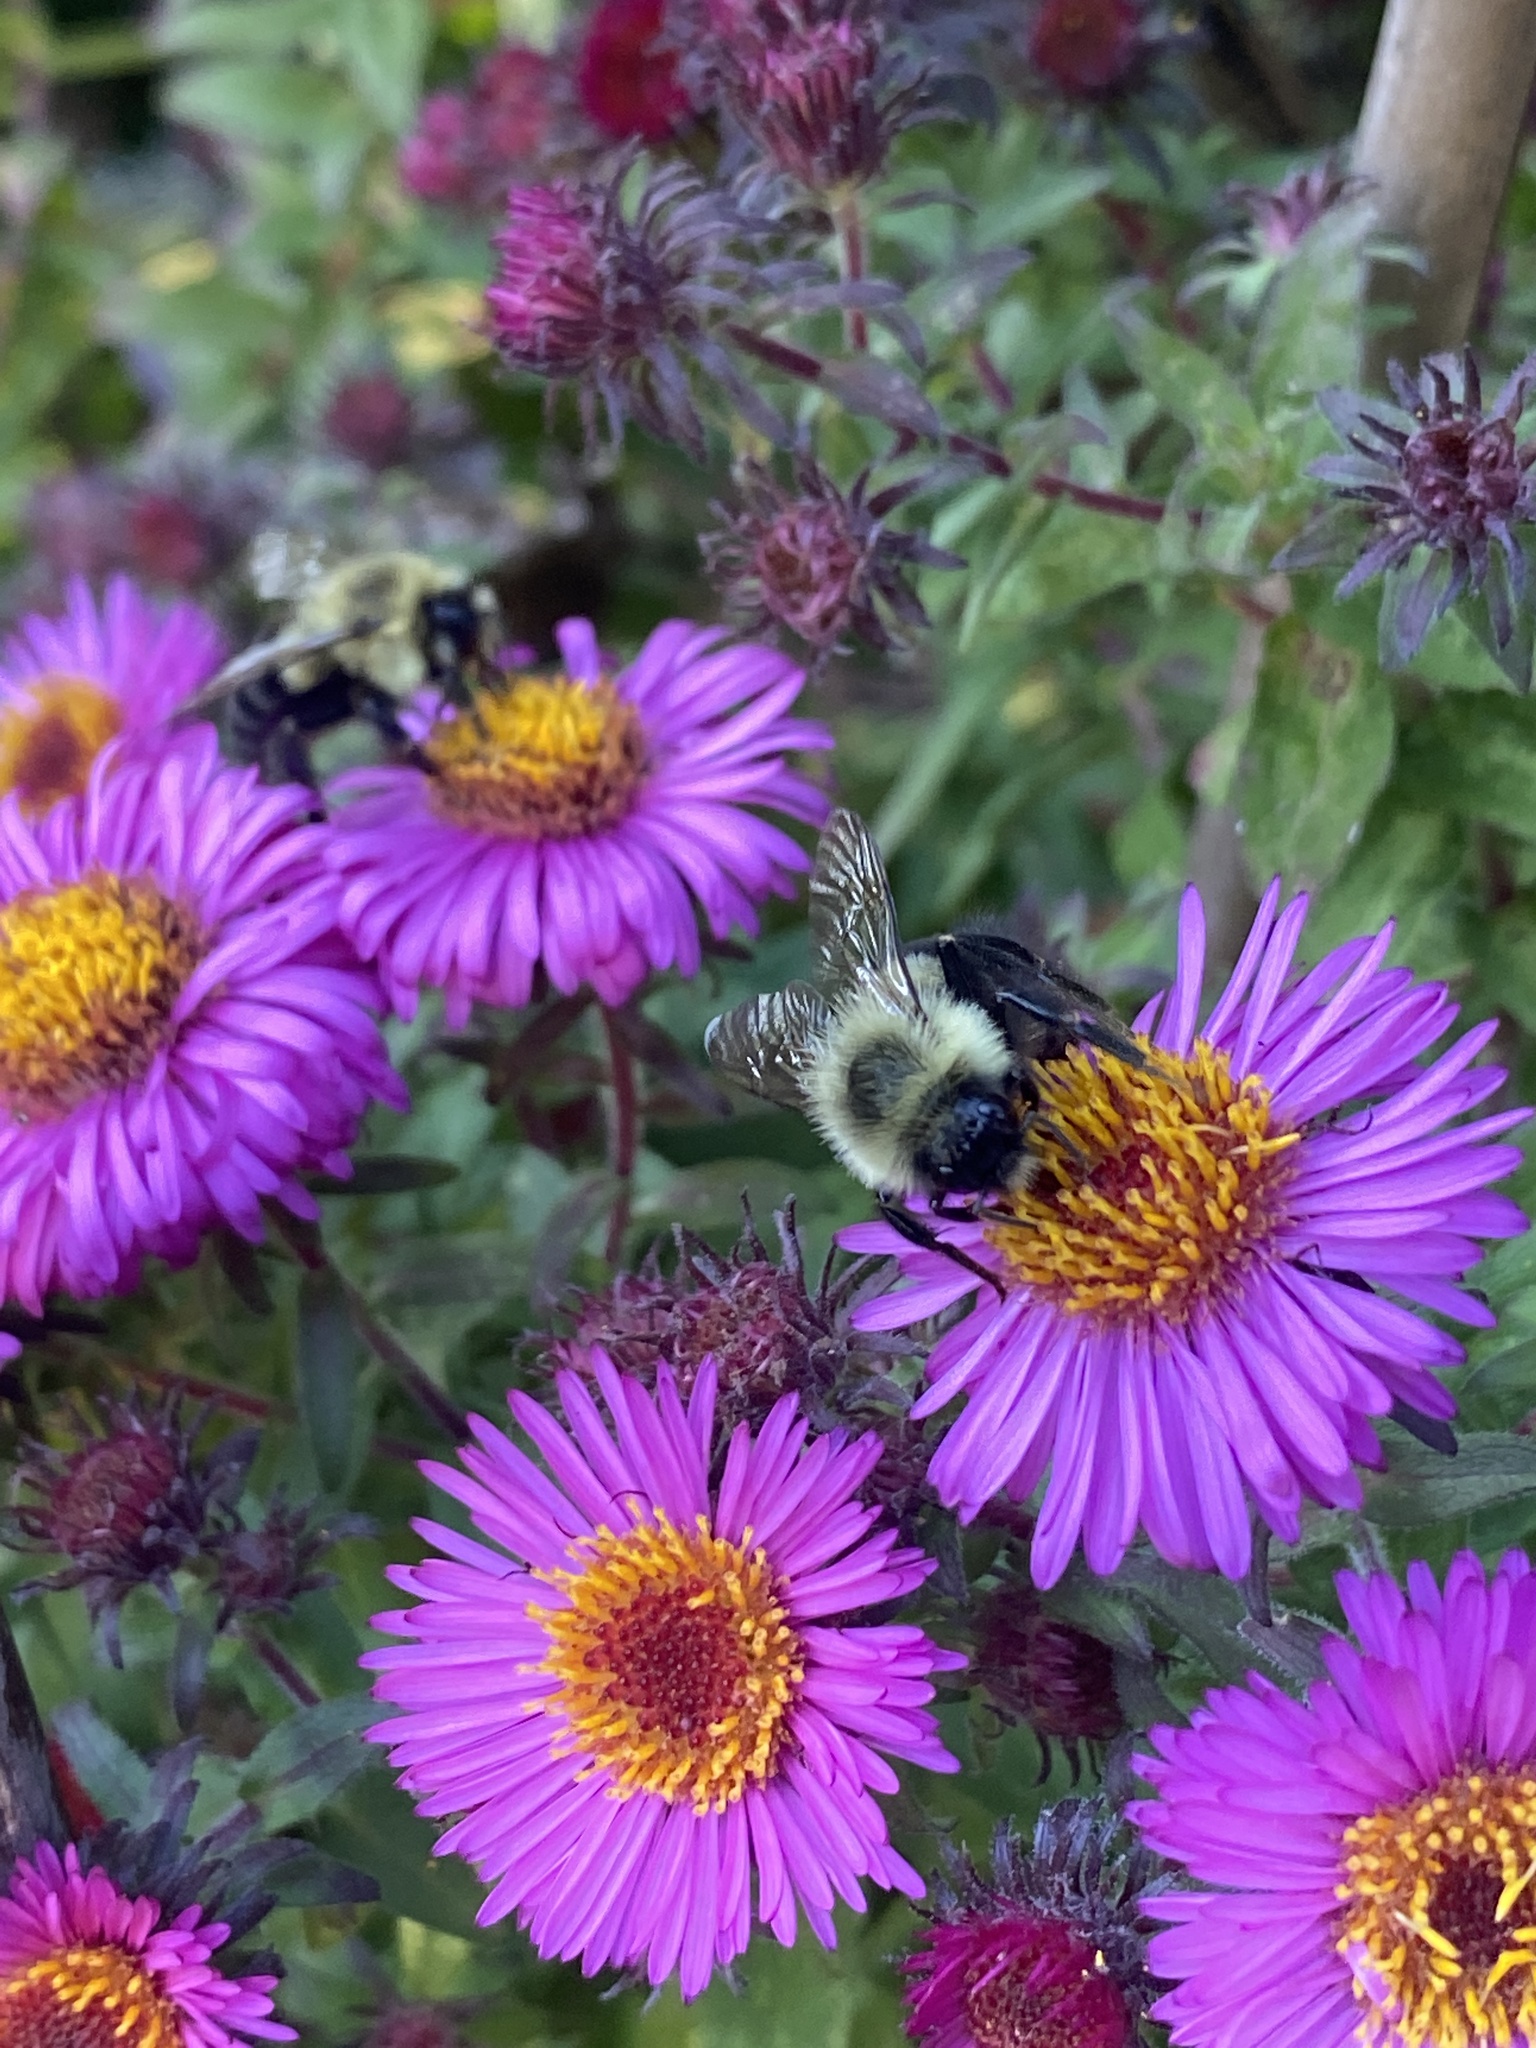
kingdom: Animalia
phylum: Arthropoda
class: Insecta
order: Hymenoptera
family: Apidae
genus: Bombus
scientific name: Bombus impatiens
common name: Common eastern bumble bee
